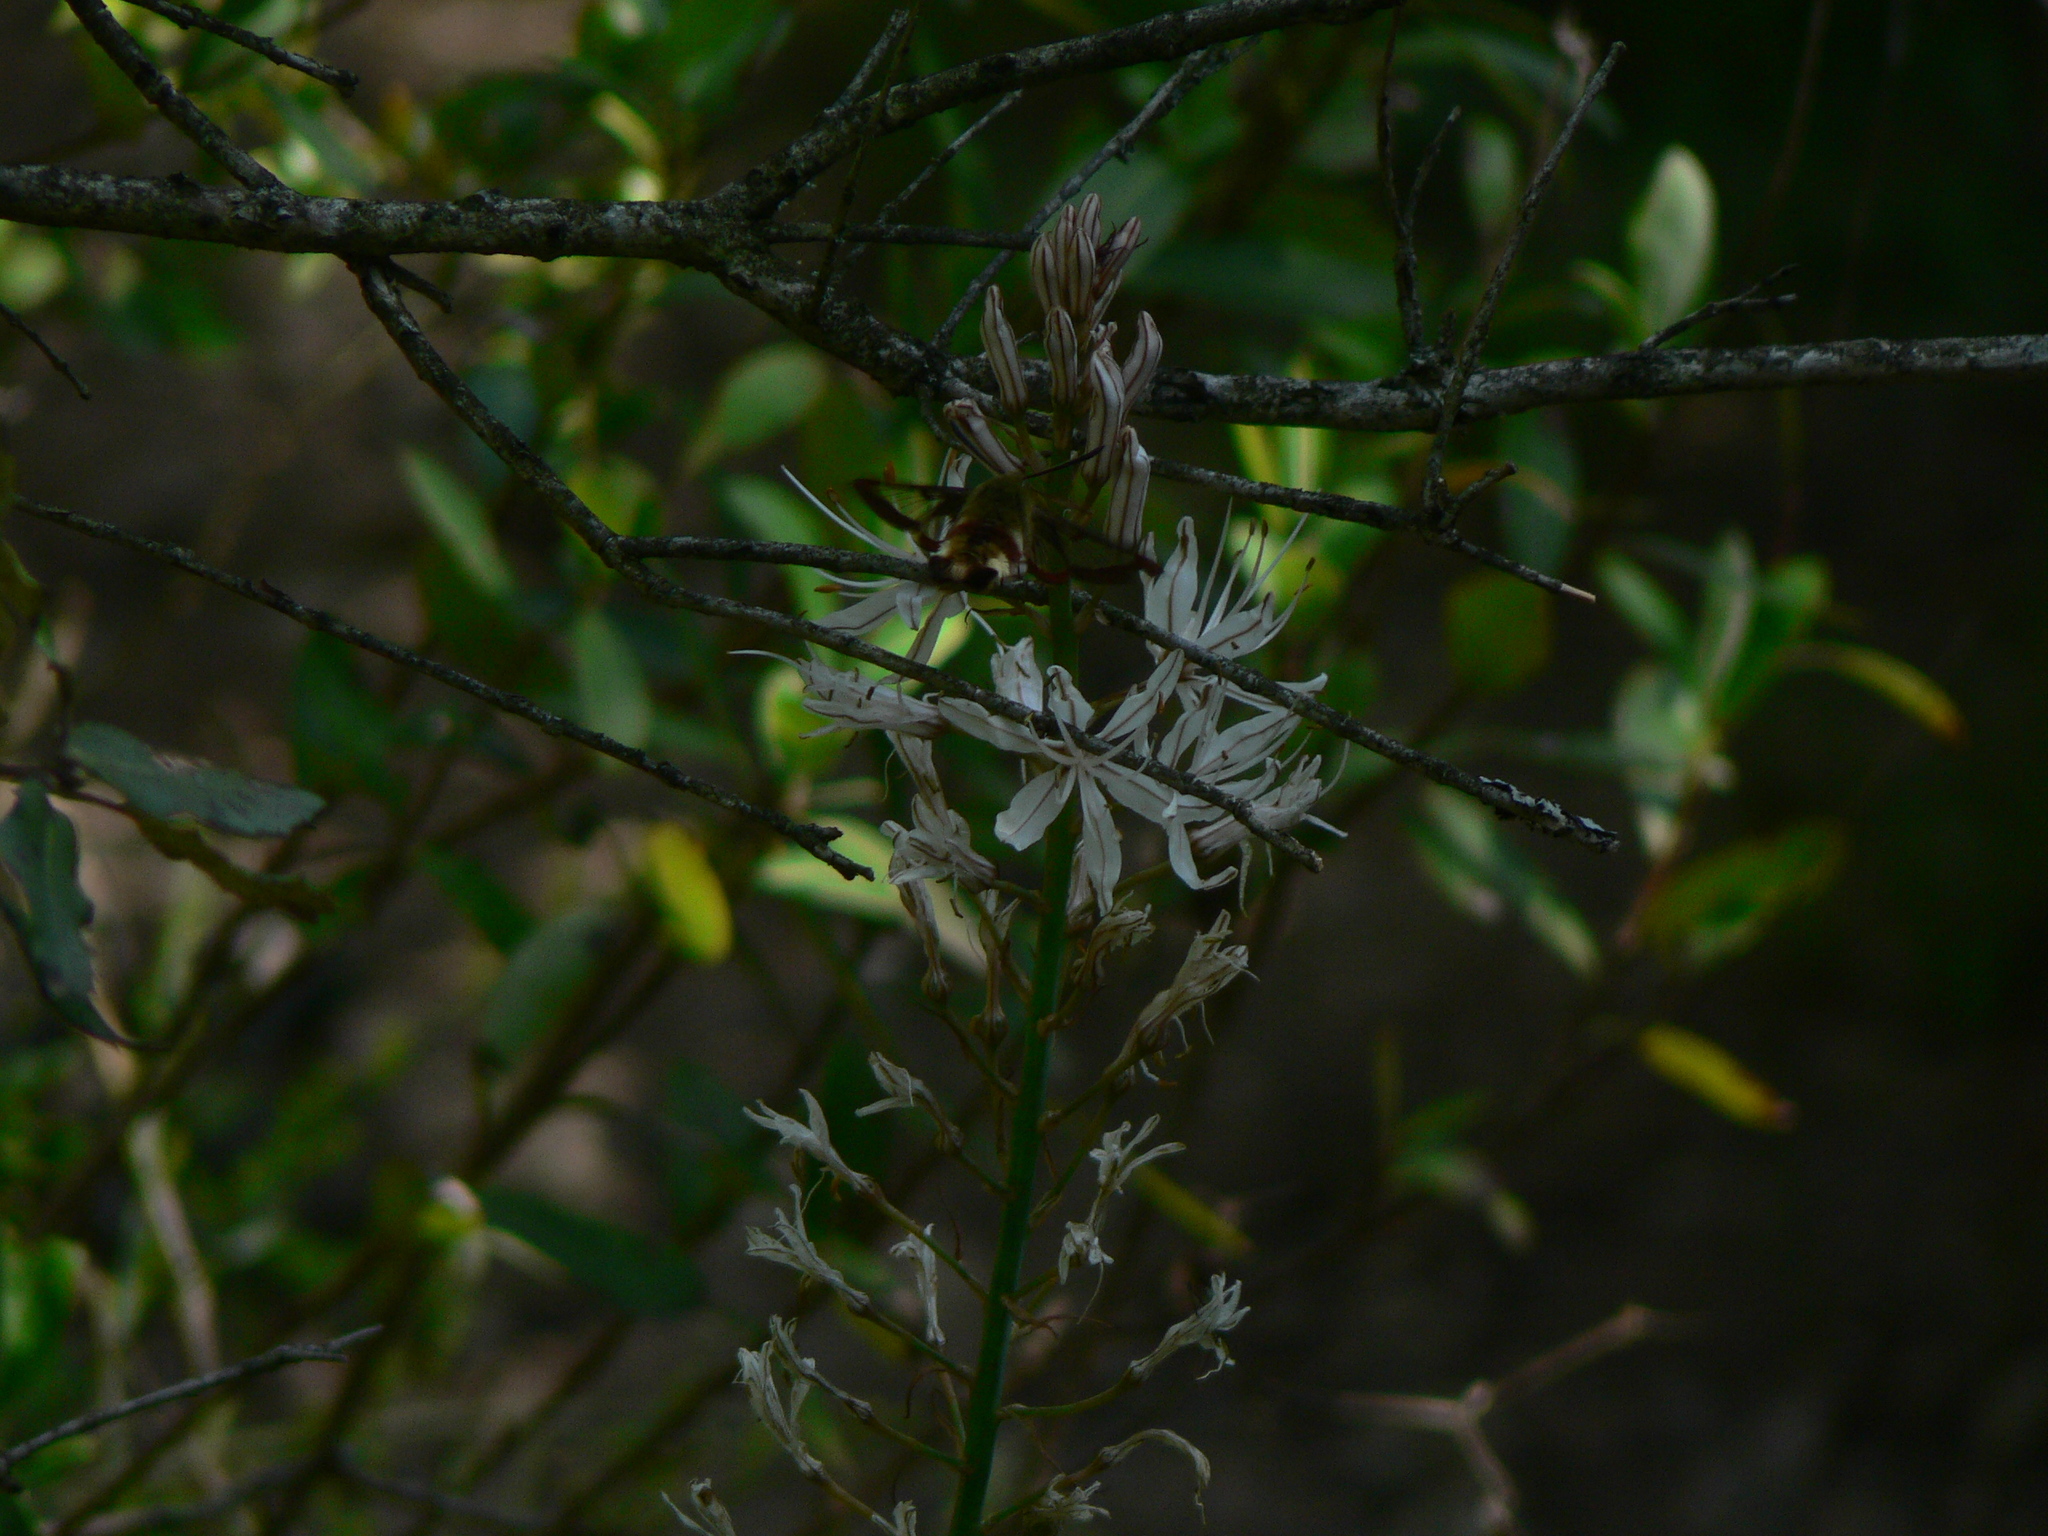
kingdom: Animalia
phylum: Arthropoda
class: Insecta
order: Lepidoptera
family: Sphingidae
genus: Hemaris
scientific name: Hemaris fuciformis
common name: Broad-bordered bee hawk-moth
